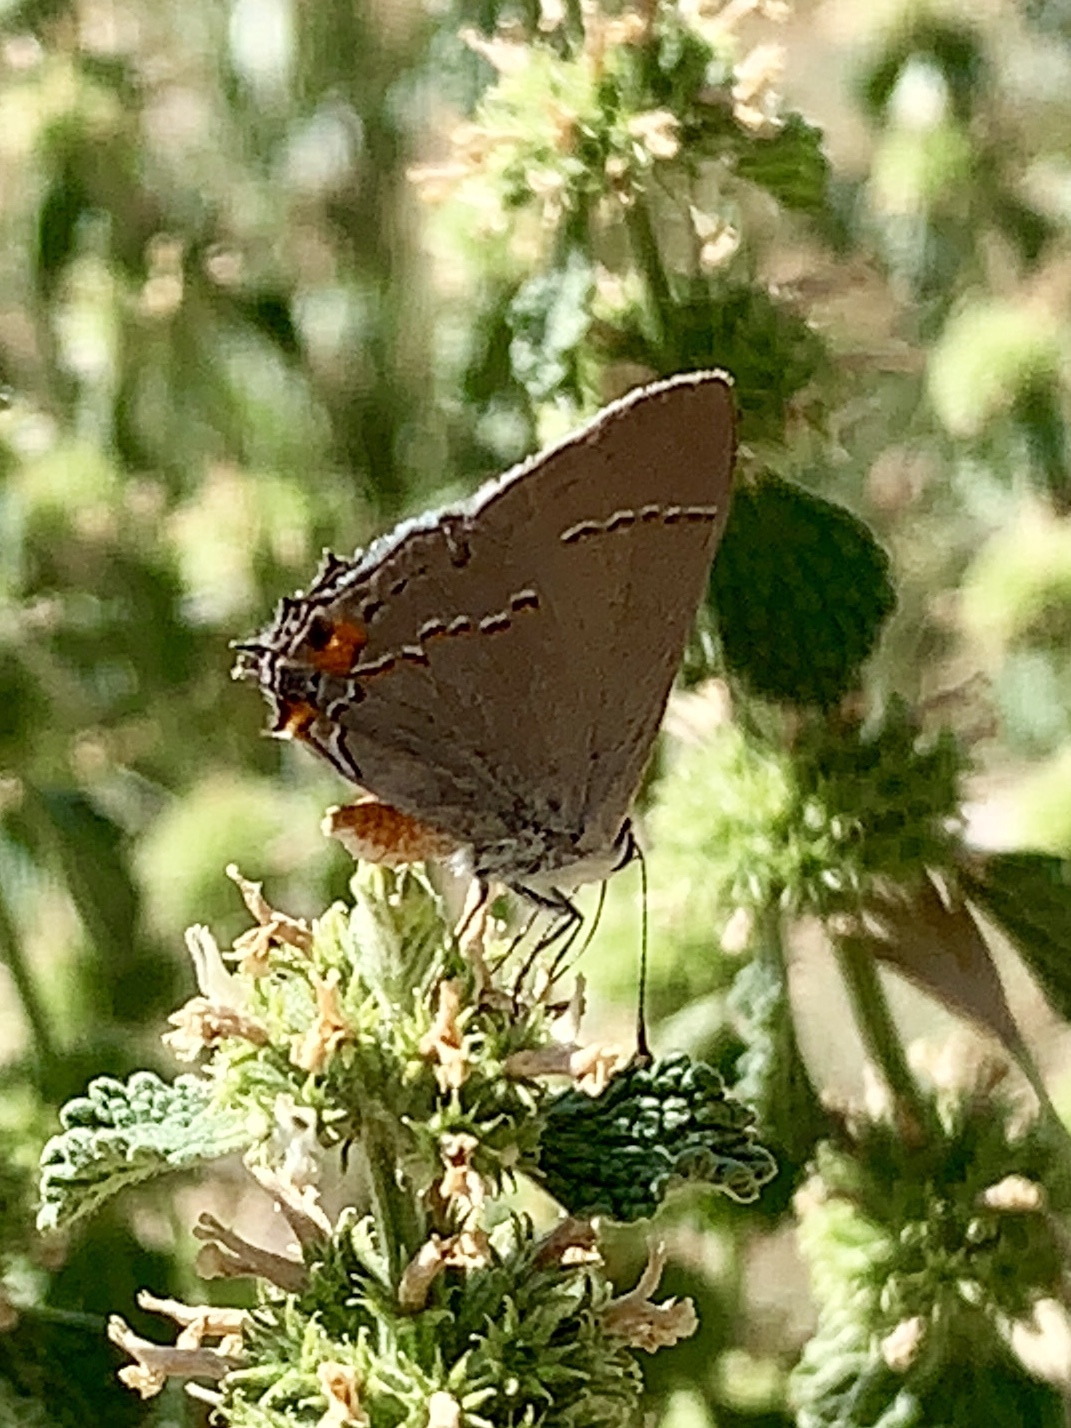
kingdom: Animalia
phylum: Arthropoda
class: Insecta
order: Lepidoptera
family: Lycaenidae
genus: Strymon
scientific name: Strymon melinus
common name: Gray hairstreak
